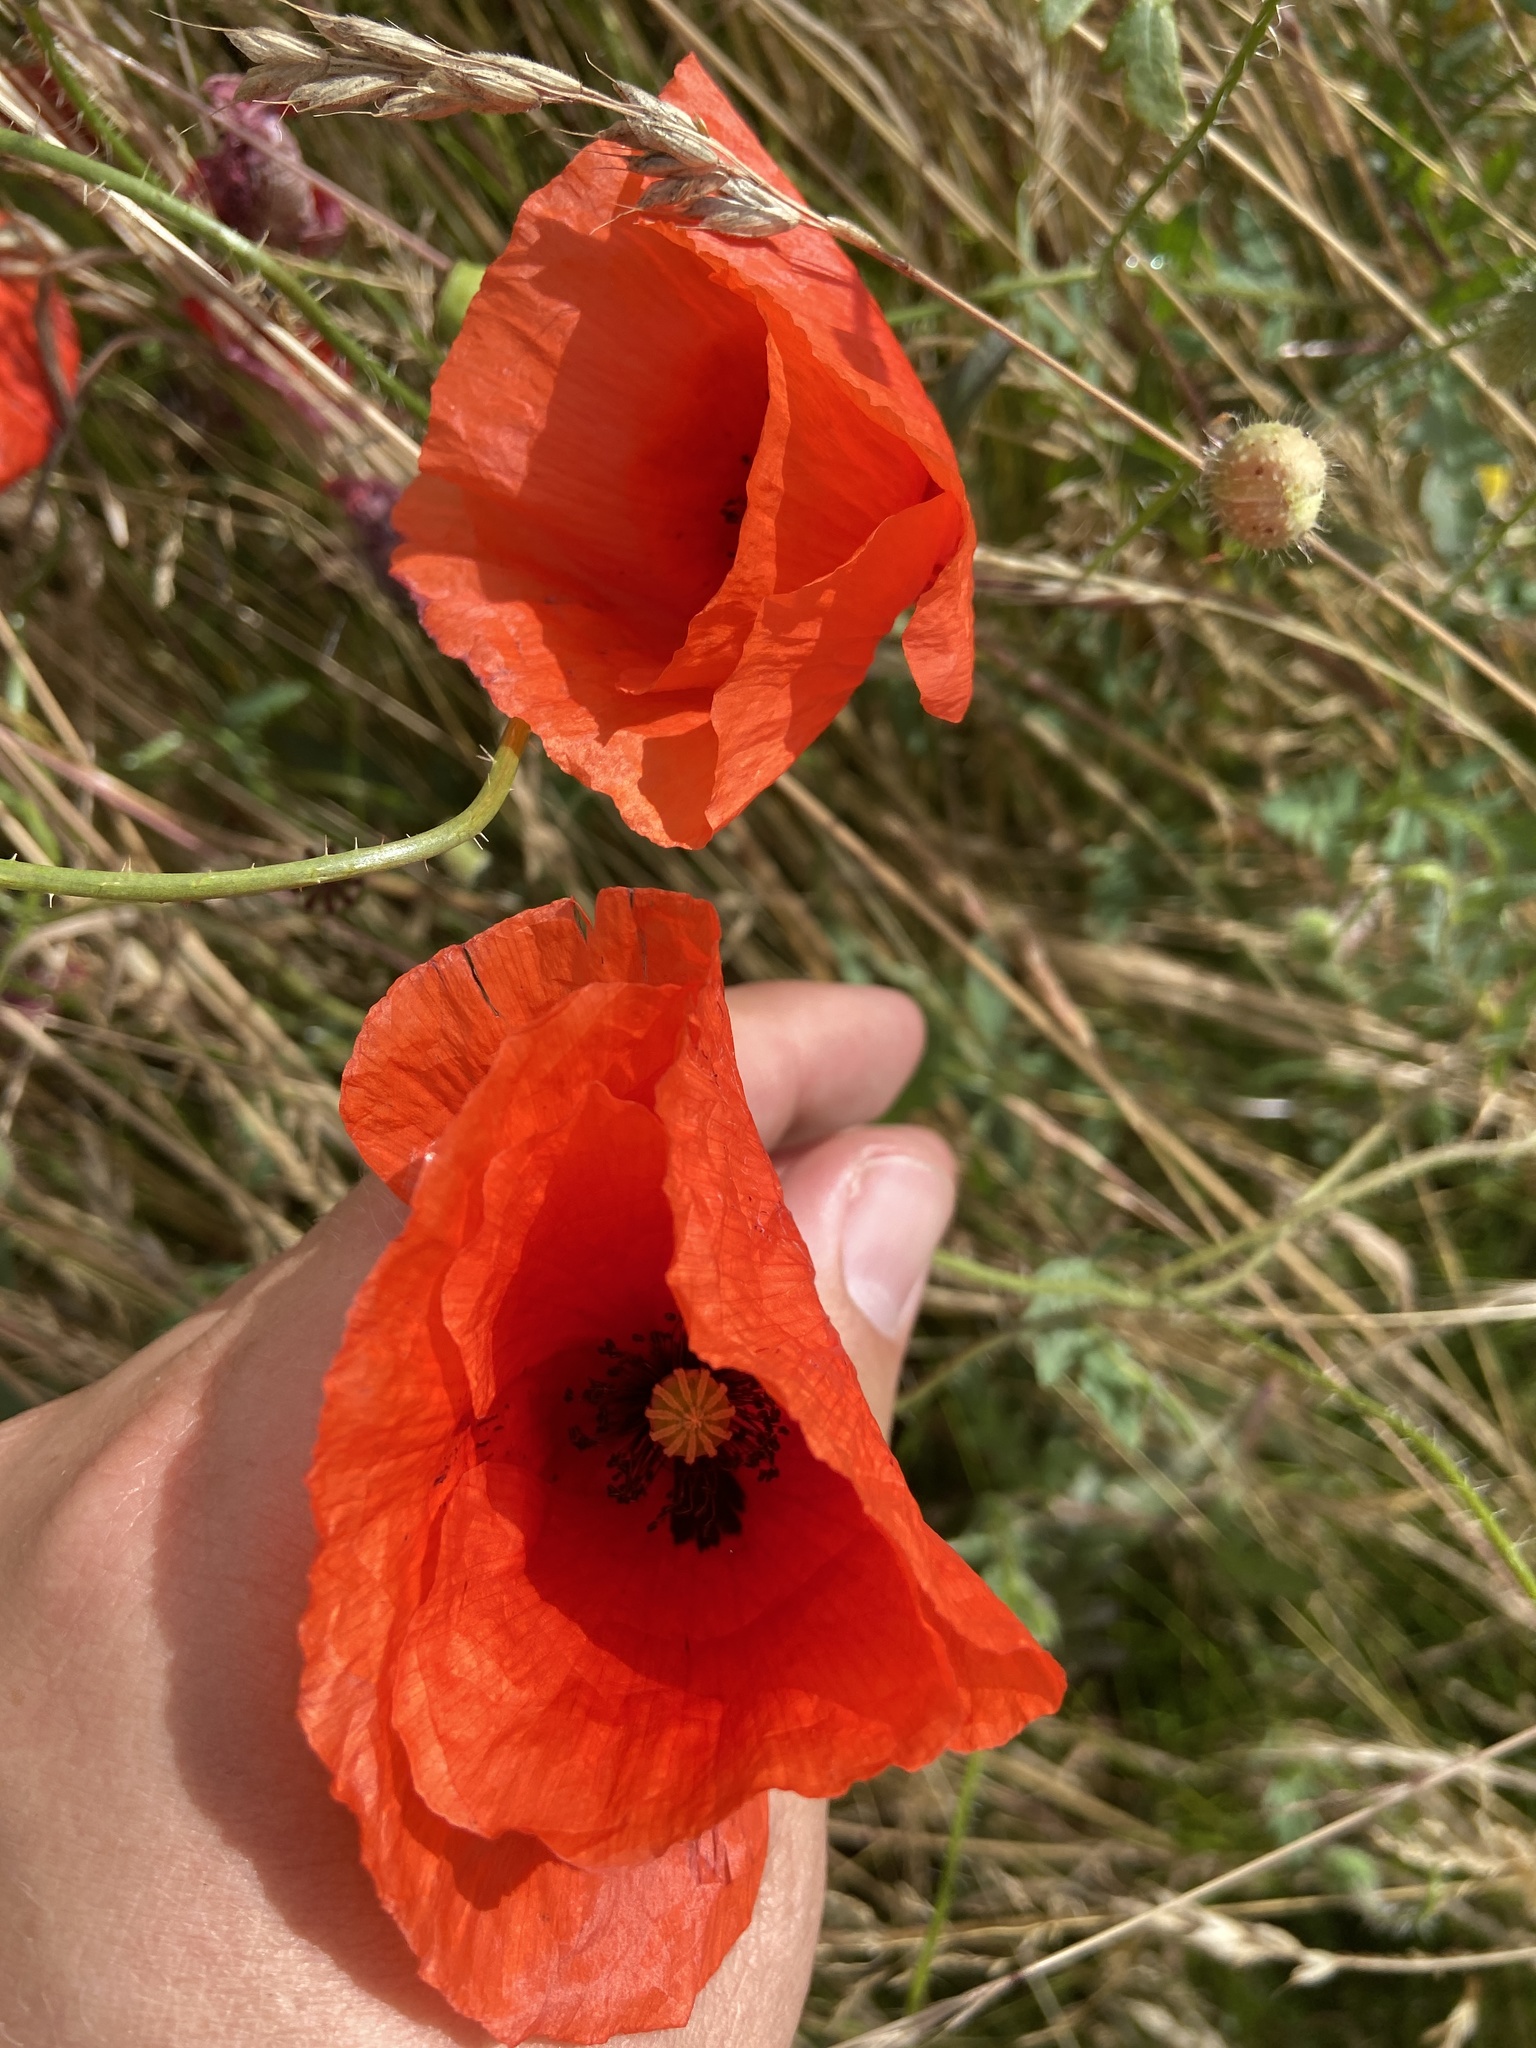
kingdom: Plantae
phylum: Tracheophyta
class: Magnoliopsida
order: Ranunculales
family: Papaveraceae
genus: Papaver
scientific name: Papaver rhoeas
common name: Corn poppy
